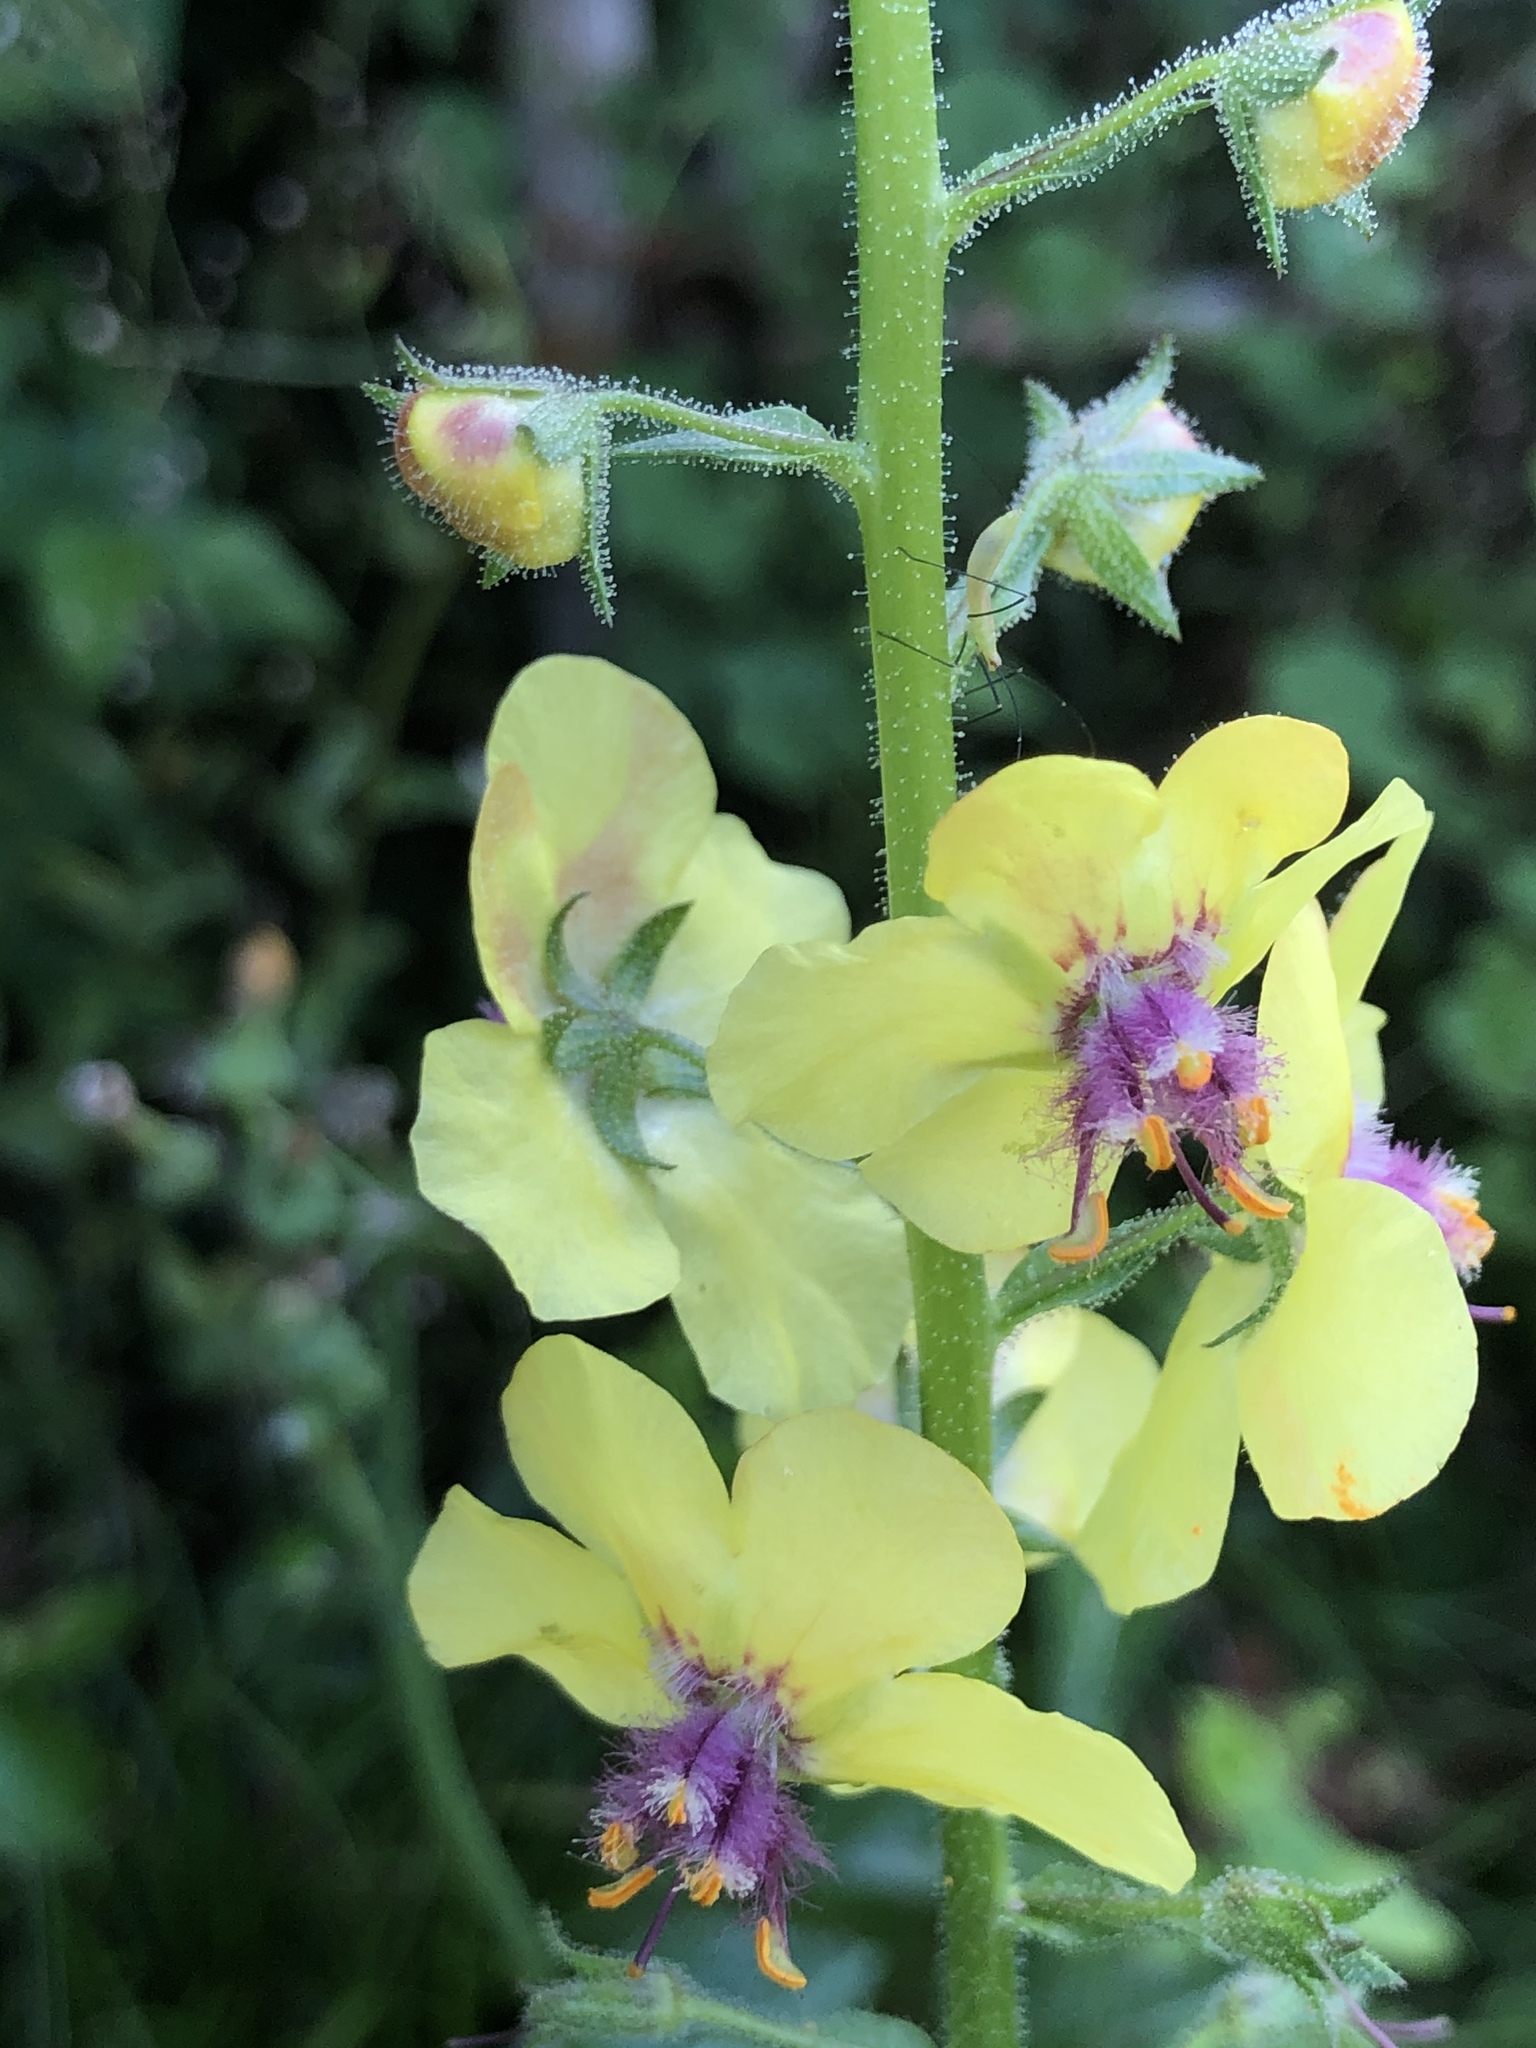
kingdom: Plantae
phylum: Tracheophyta
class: Magnoliopsida
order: Lamiales
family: Scrophulariaceae
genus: Verbascum
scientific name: Verbascum blattaria
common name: Moth mullein
